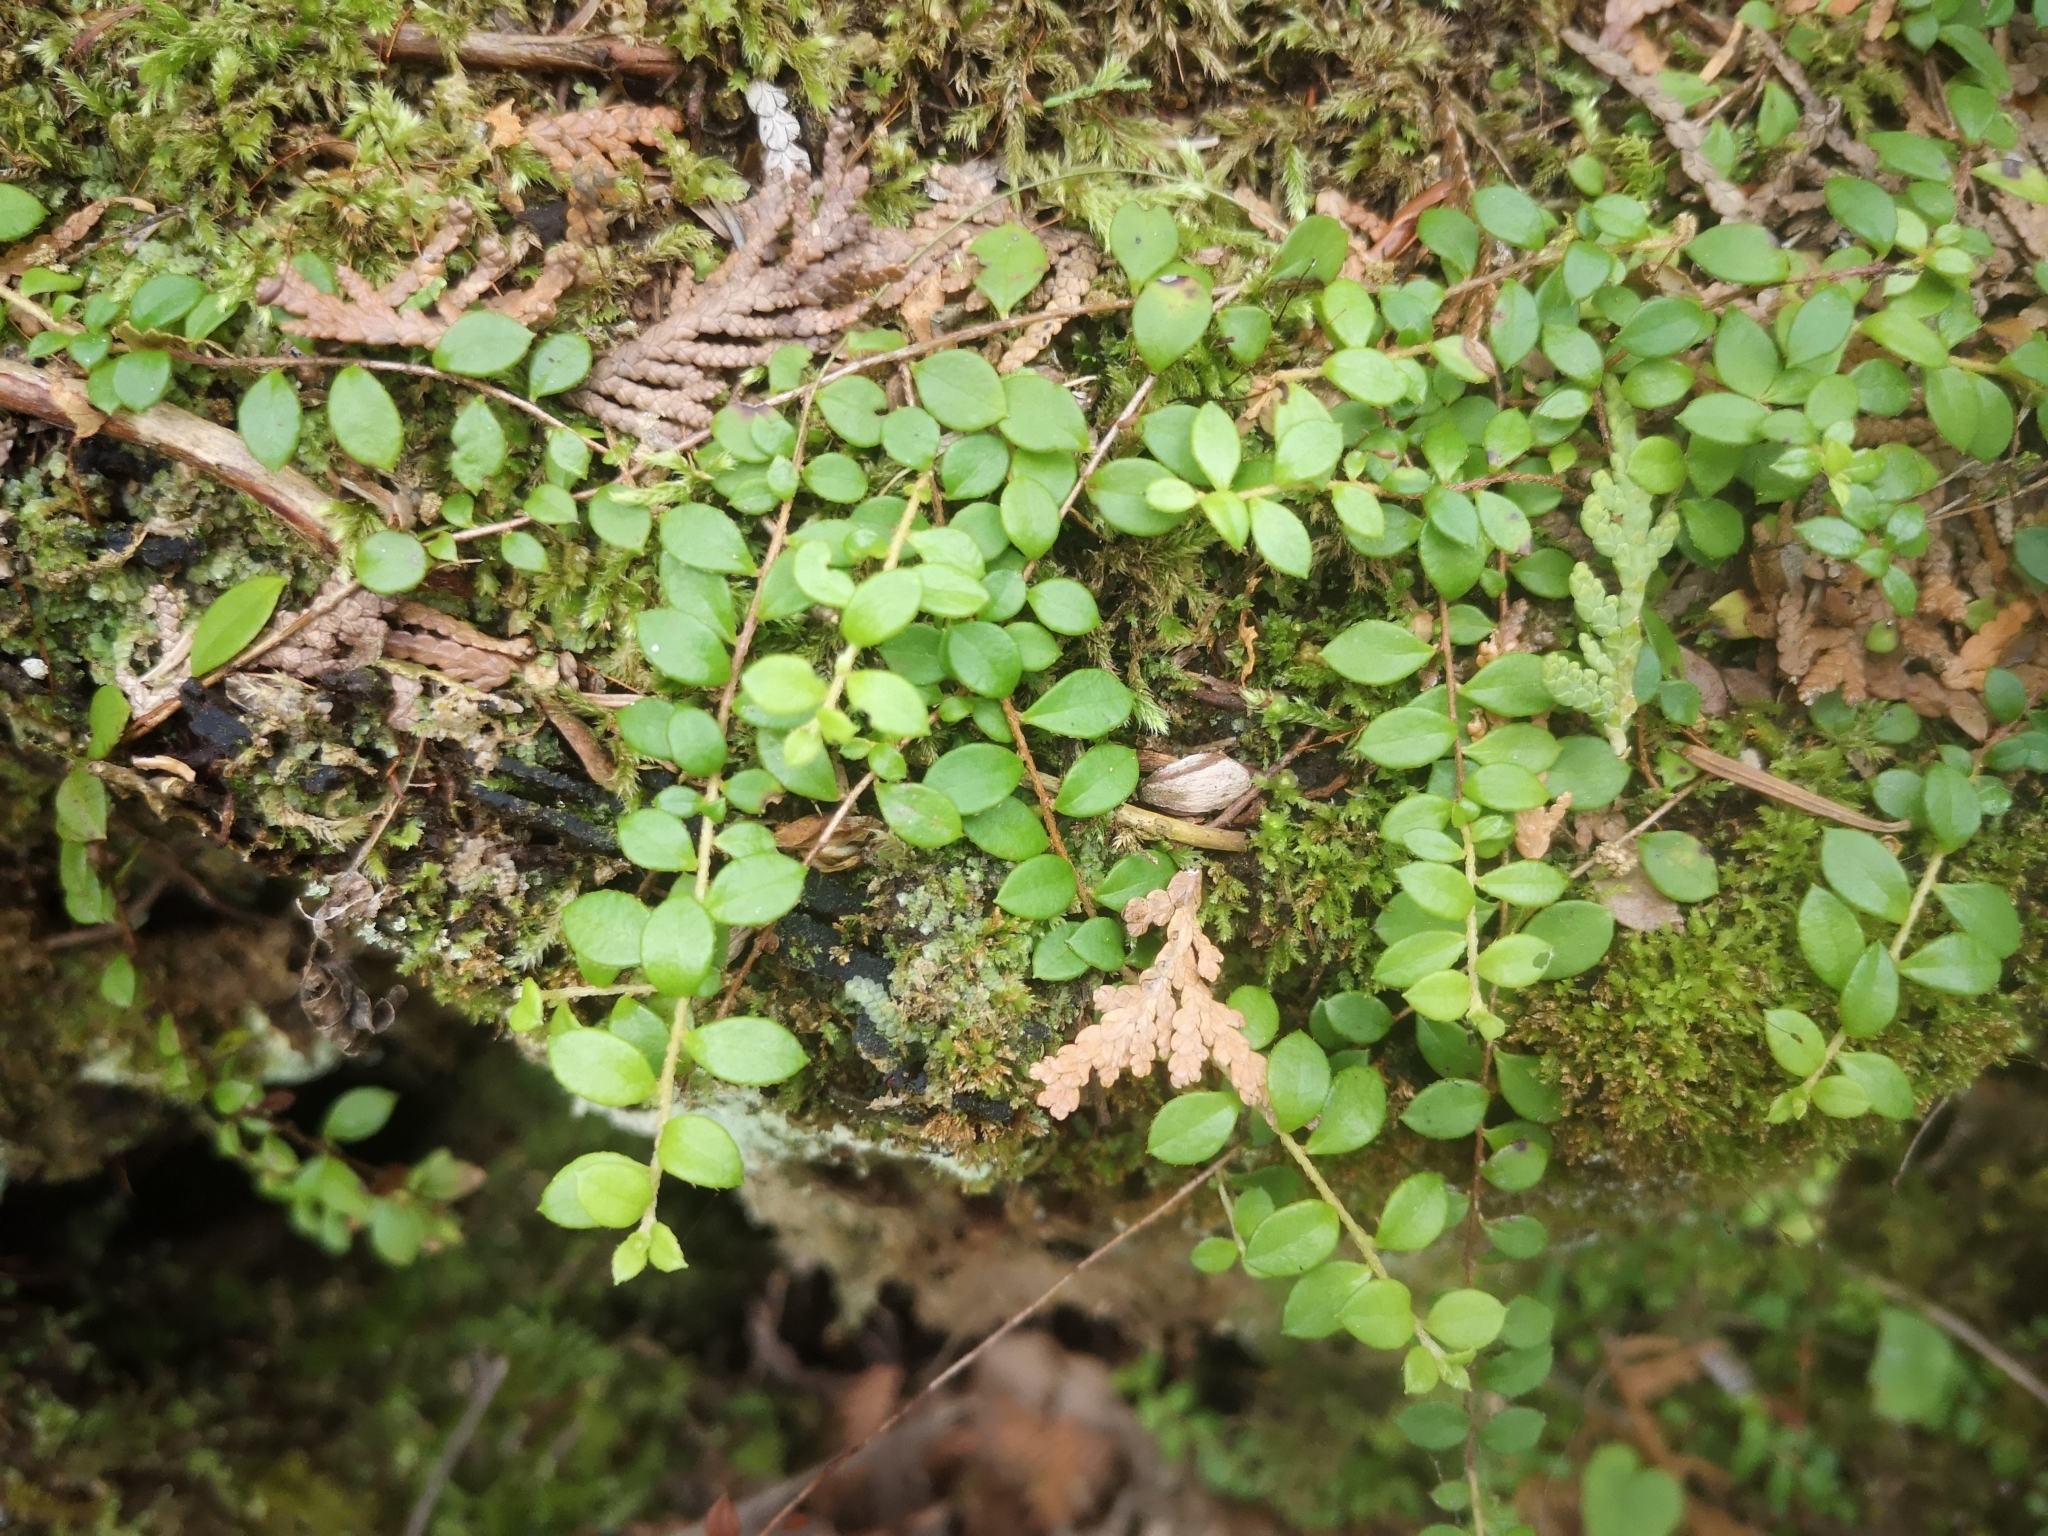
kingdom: Plantae
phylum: Tracheophyta
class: Magnoliopsida
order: Ericales
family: Ericaceae
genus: Gaultheria
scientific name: Gaultheria hispidula
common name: Cancer wintergreen
